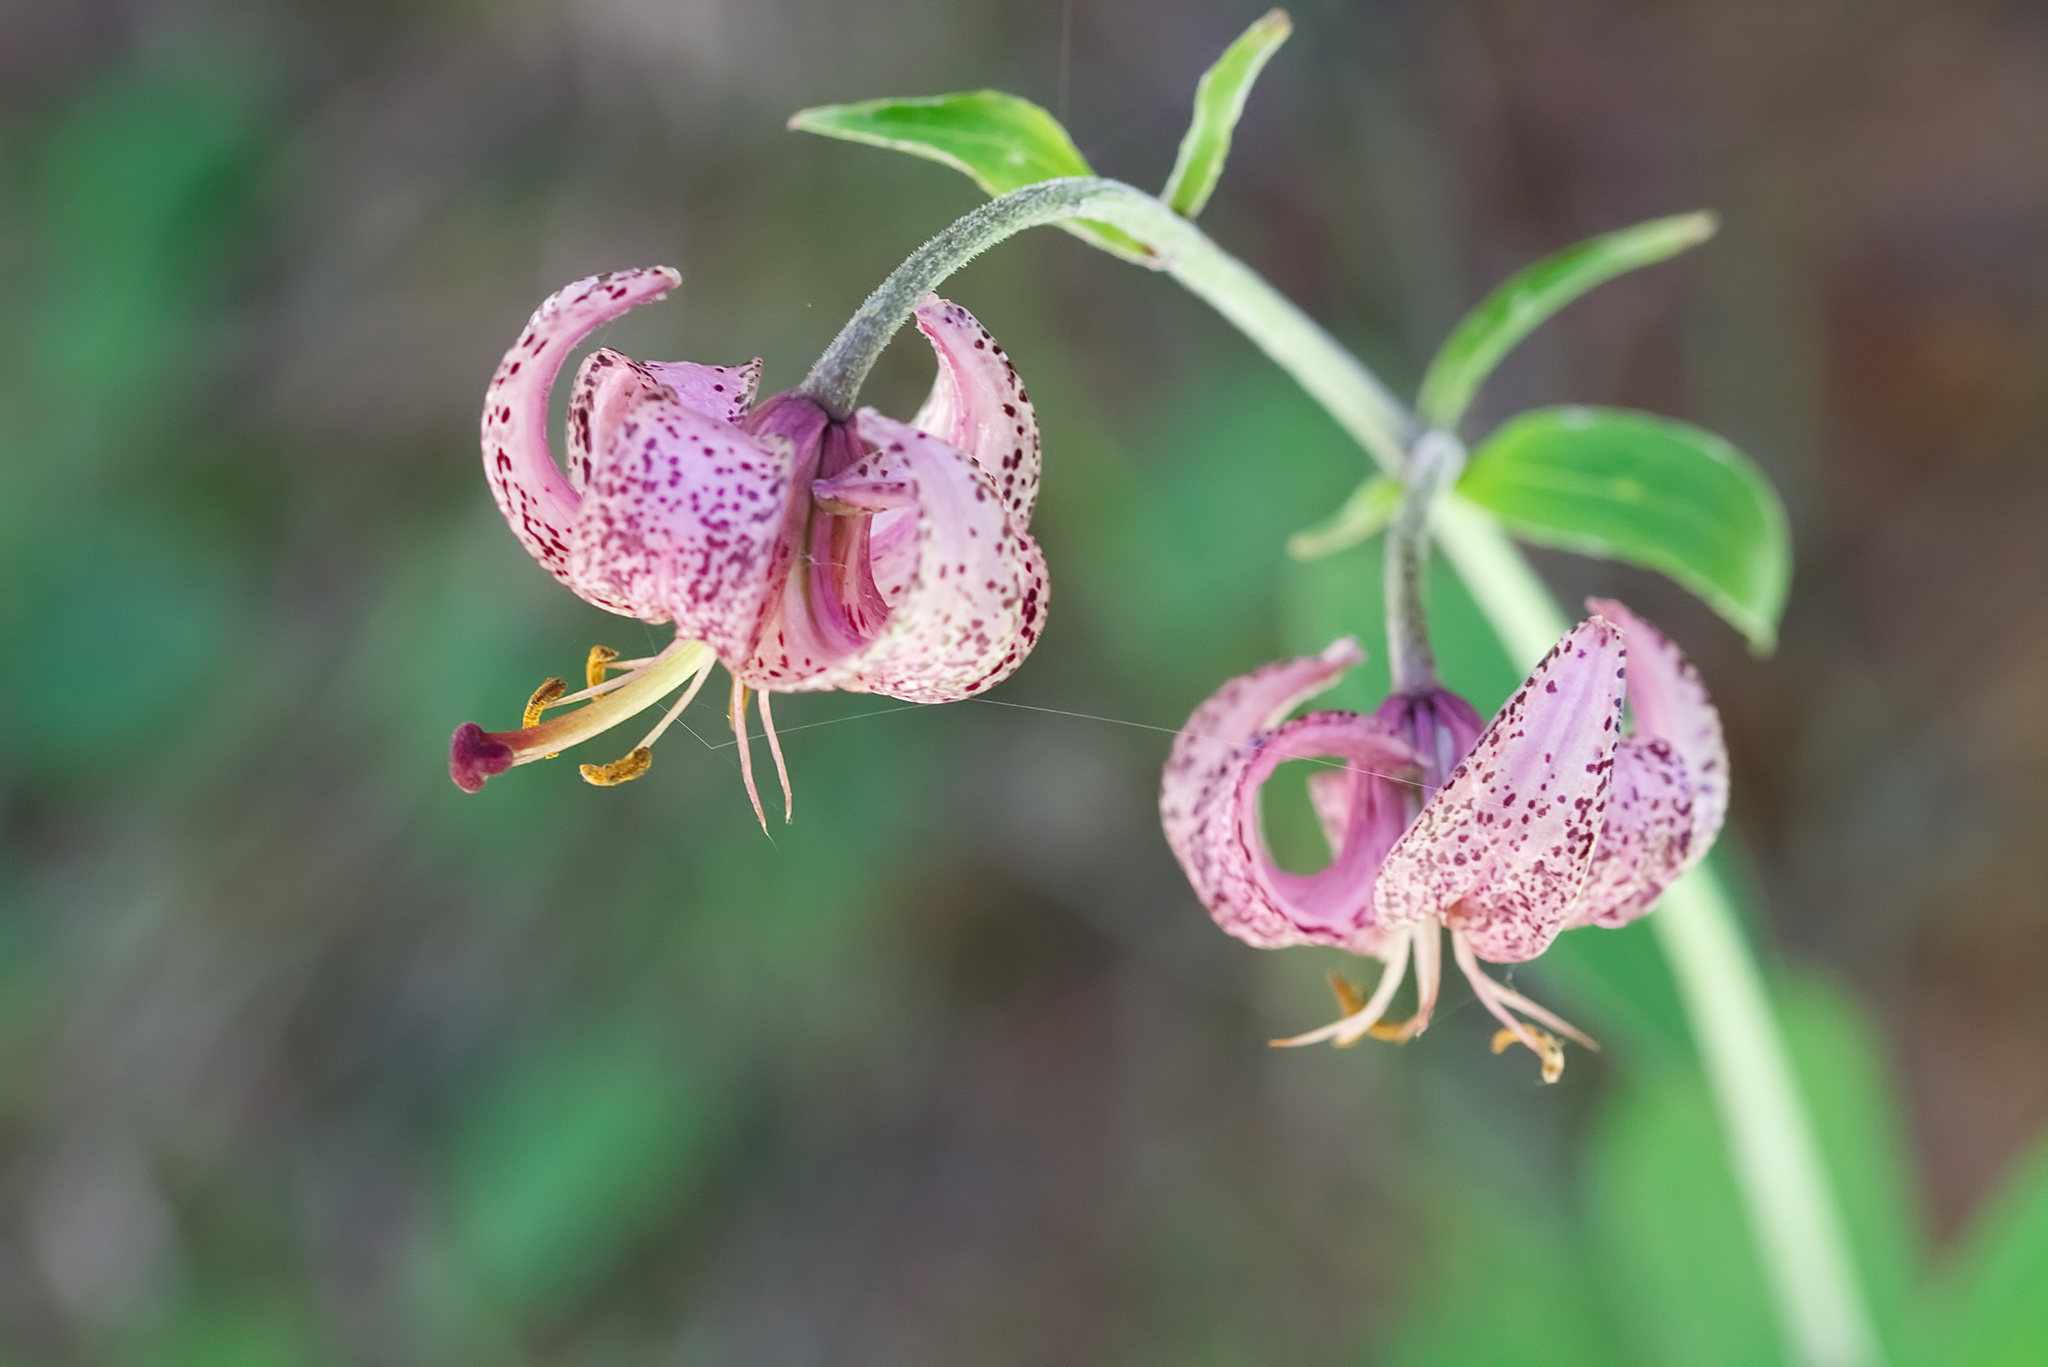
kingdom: Plantae
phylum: Tracheophyta
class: Liliopsida
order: Liliales
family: Liliaceae
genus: Lilium
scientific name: Lilium martagon
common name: Martagon lily
